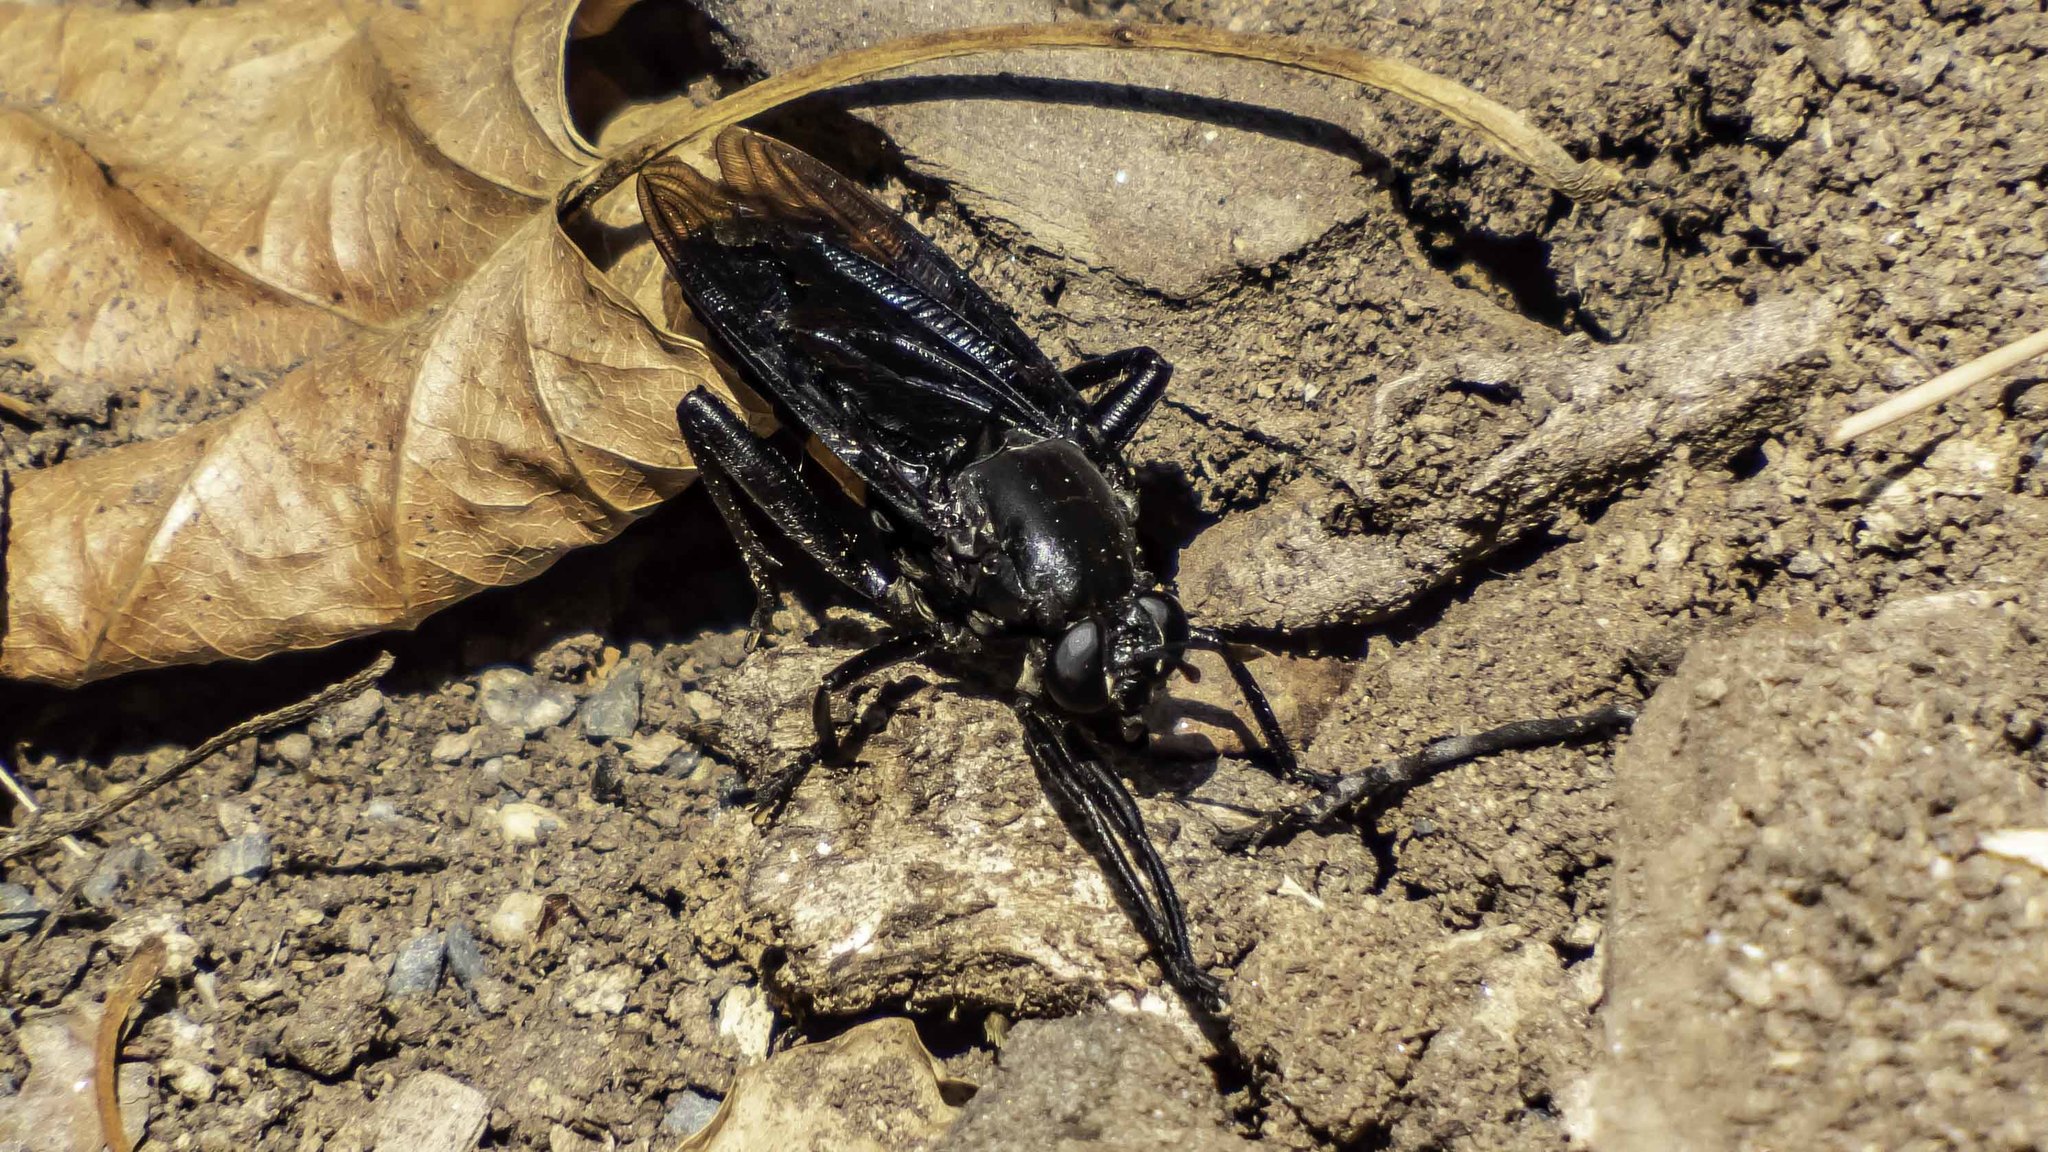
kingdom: Animalia
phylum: Arthropoda
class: Insecta
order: Diptera
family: Mydidae
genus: Mydas
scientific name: Mydas clavatus
